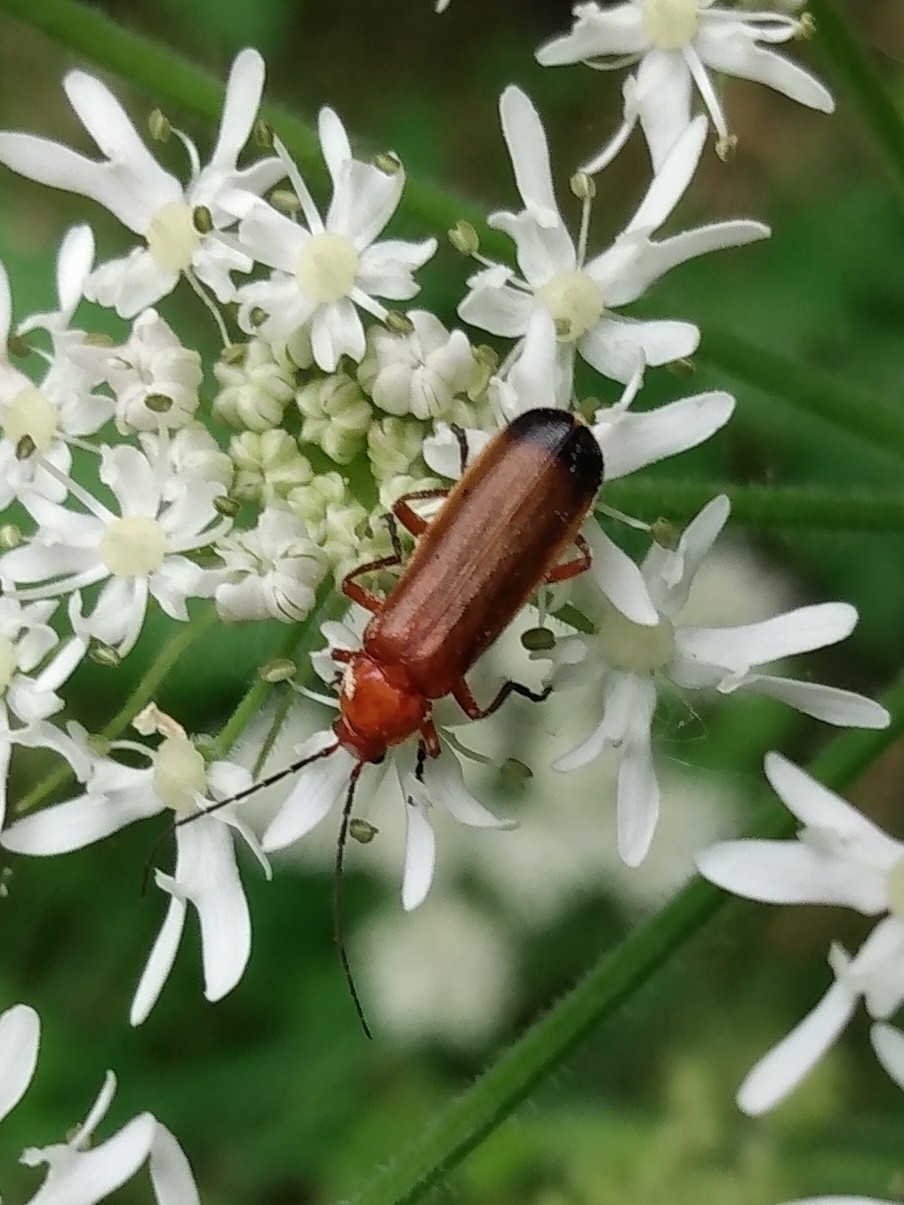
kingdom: Animalia
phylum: Arthropoda
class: Insecta
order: Coleoptera
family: Cantharidae
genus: Rhagonycha
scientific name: Rhagonycha fulva
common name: Common red soldier beetle
